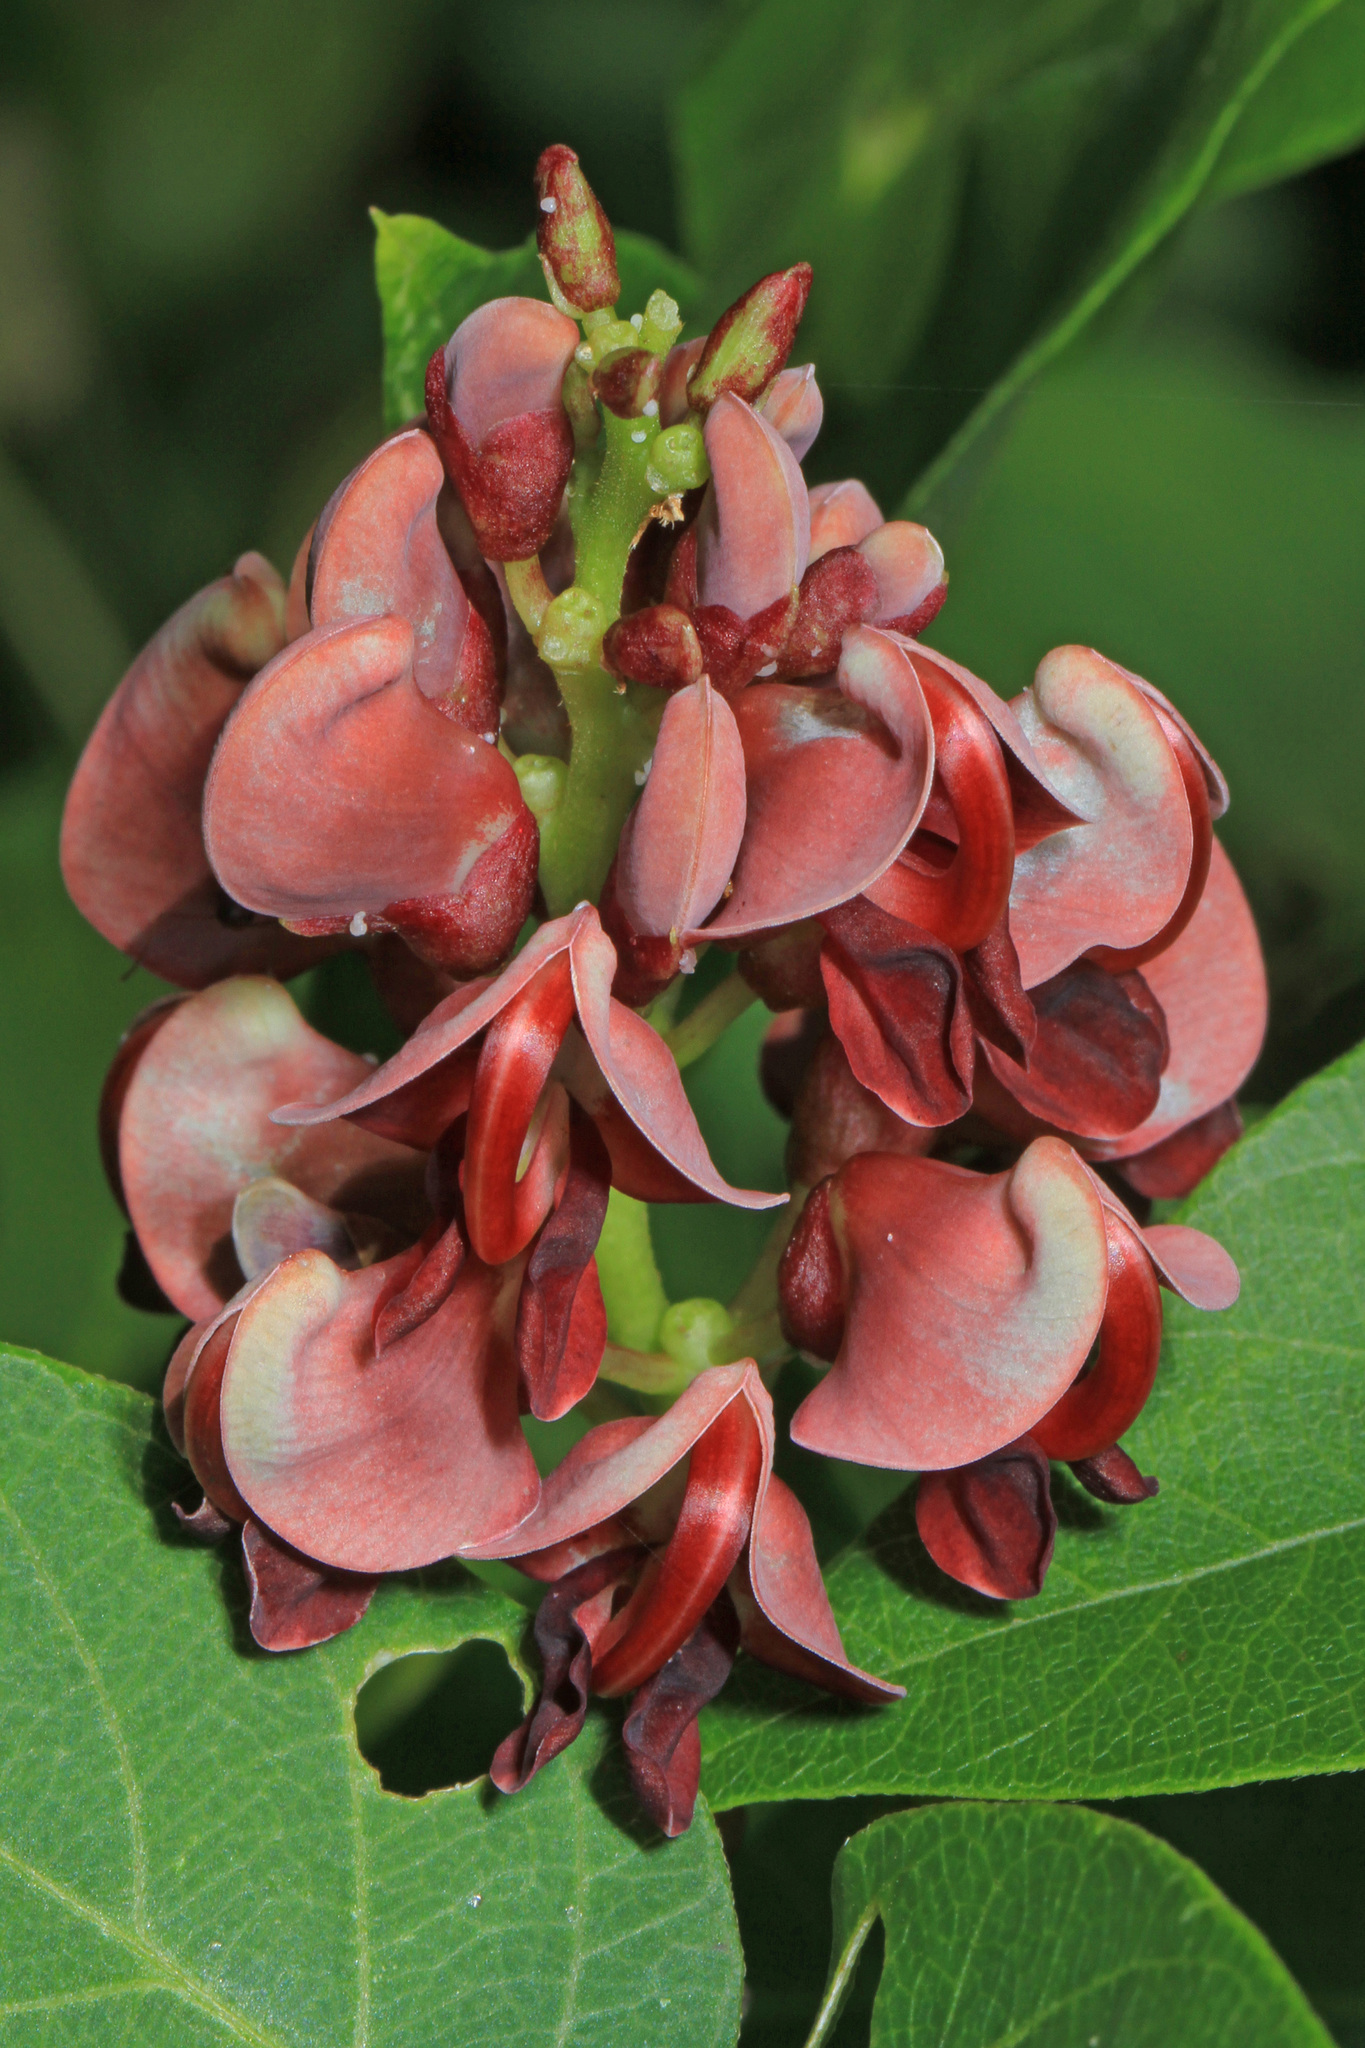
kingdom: Plantae
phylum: Tracheophyta
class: Magnoliopsida
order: Fabales
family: Fabaceae
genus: Apios
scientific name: Apios americana
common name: American potato-bean
